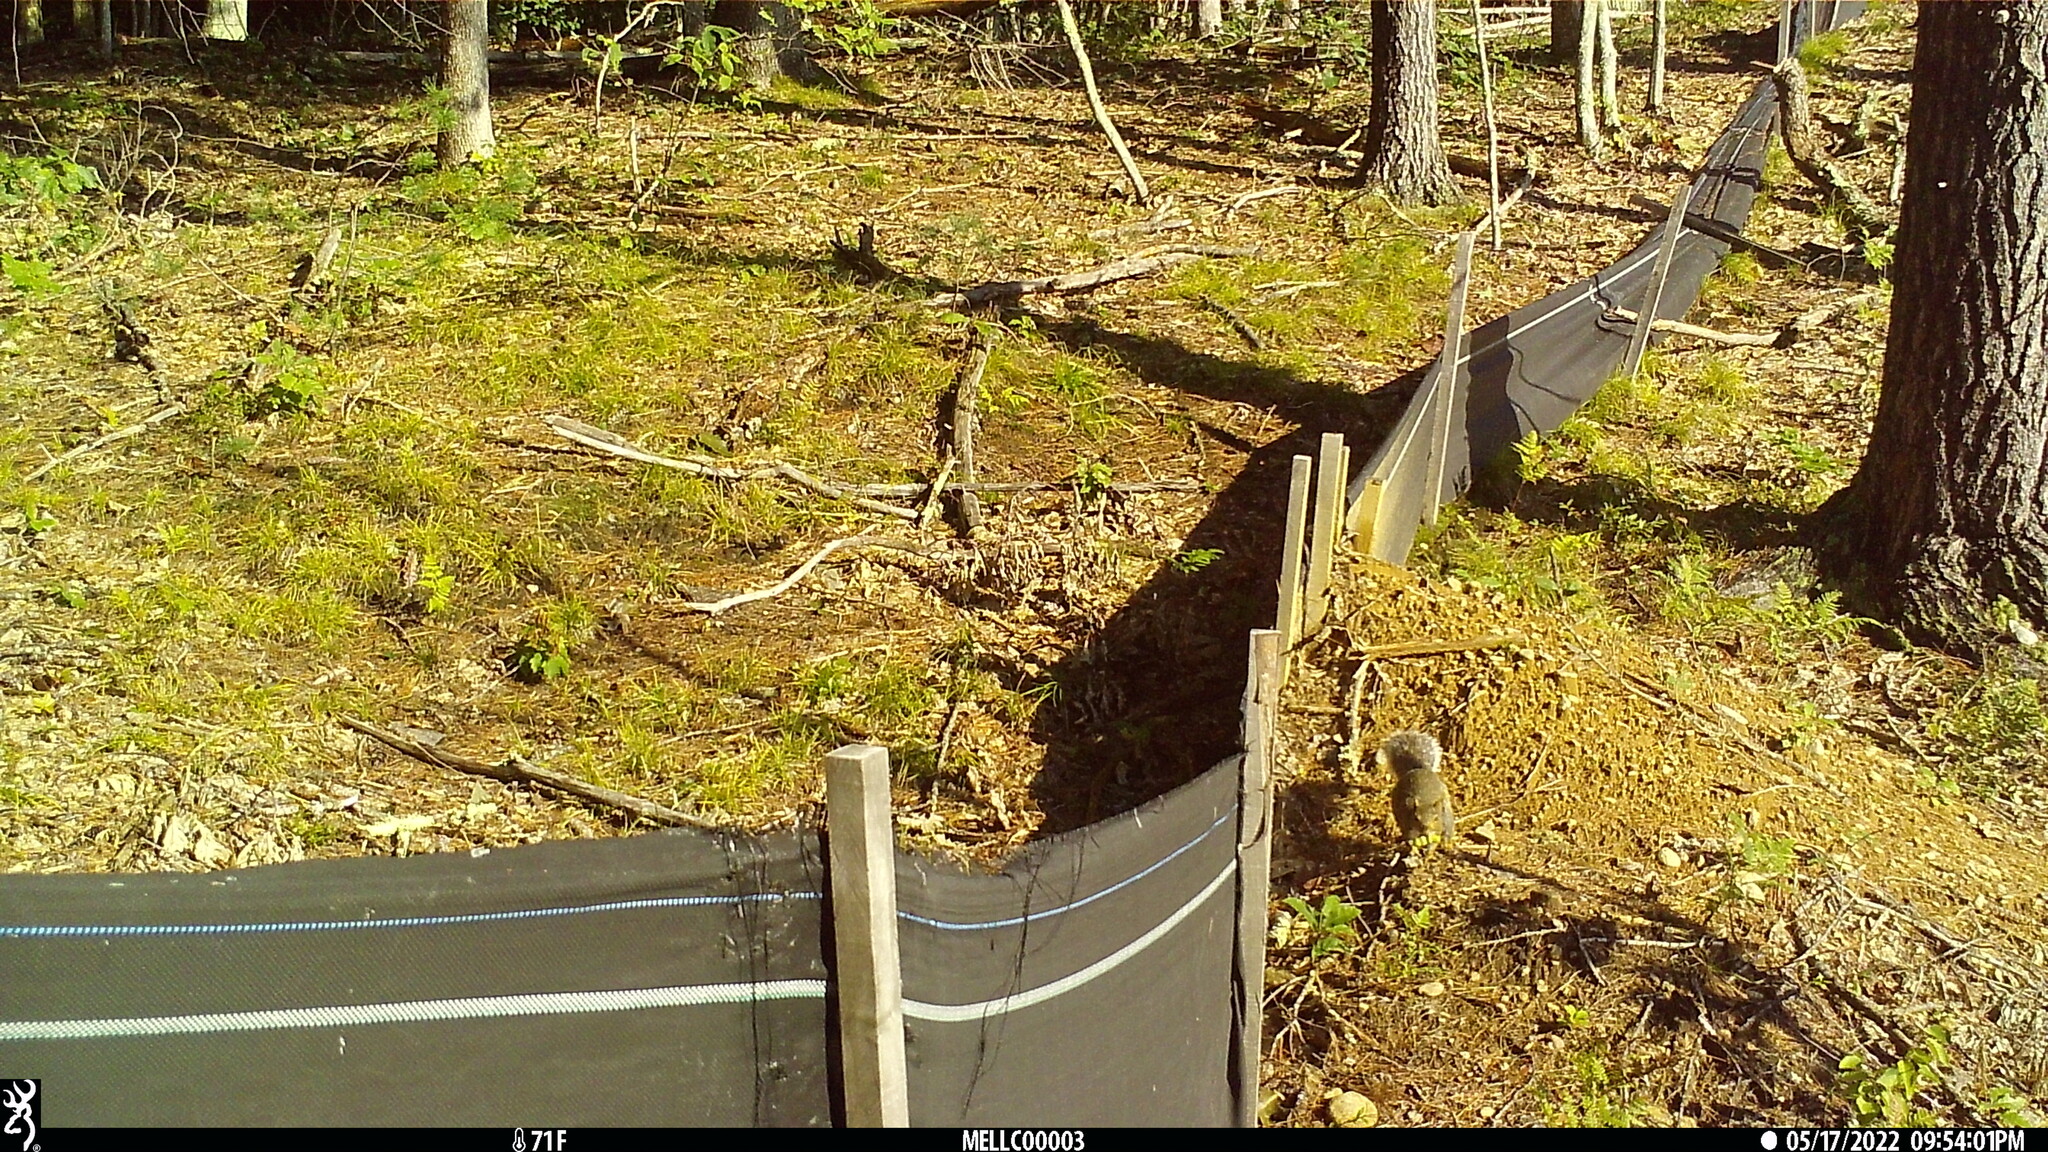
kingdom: Animalia
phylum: Chordata
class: Mammalia
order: Rodentia
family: Sciuridae
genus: Sciurus
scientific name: Sciurus carolinensis
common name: Eastern gray squirrel
